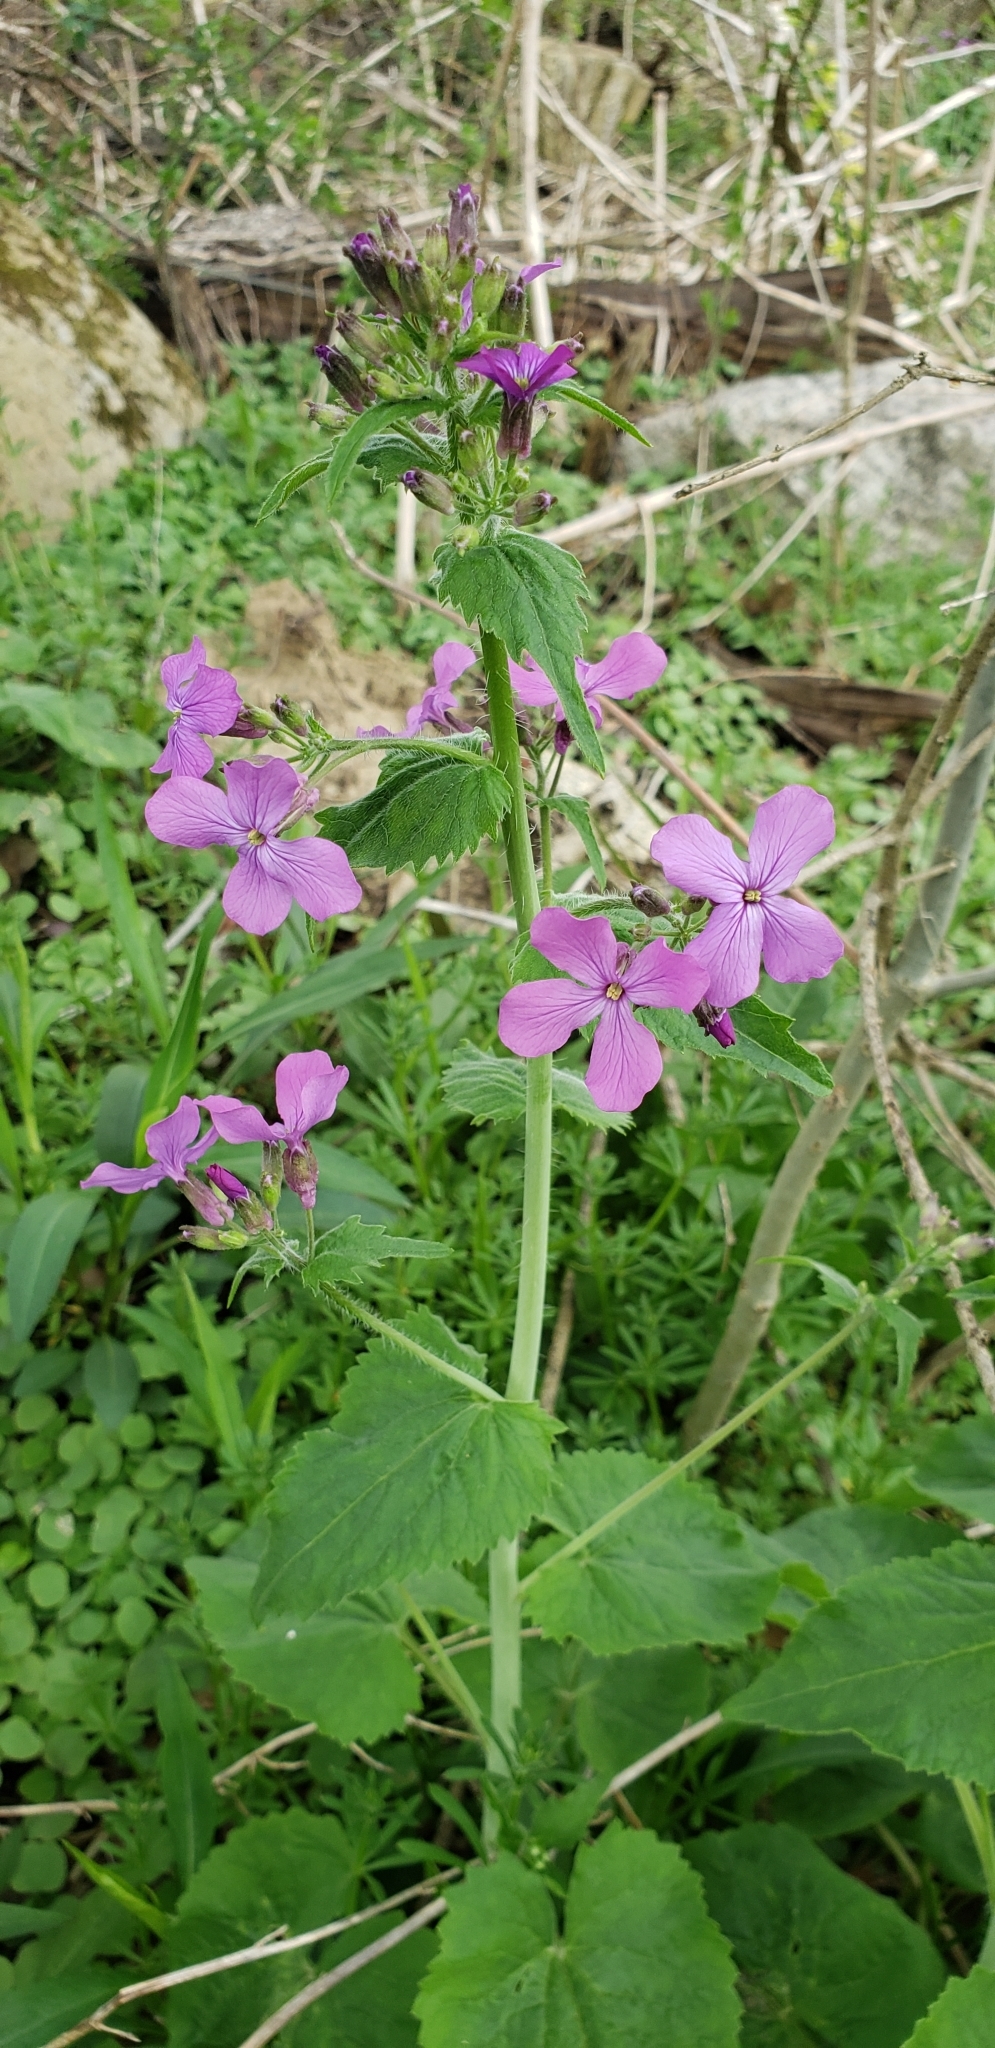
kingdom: Plantae
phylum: Tracheophyta
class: Magnoliopsida
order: Brassicales
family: Brassicaceae
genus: Lunaria
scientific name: Lunaria annua
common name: Honesty
